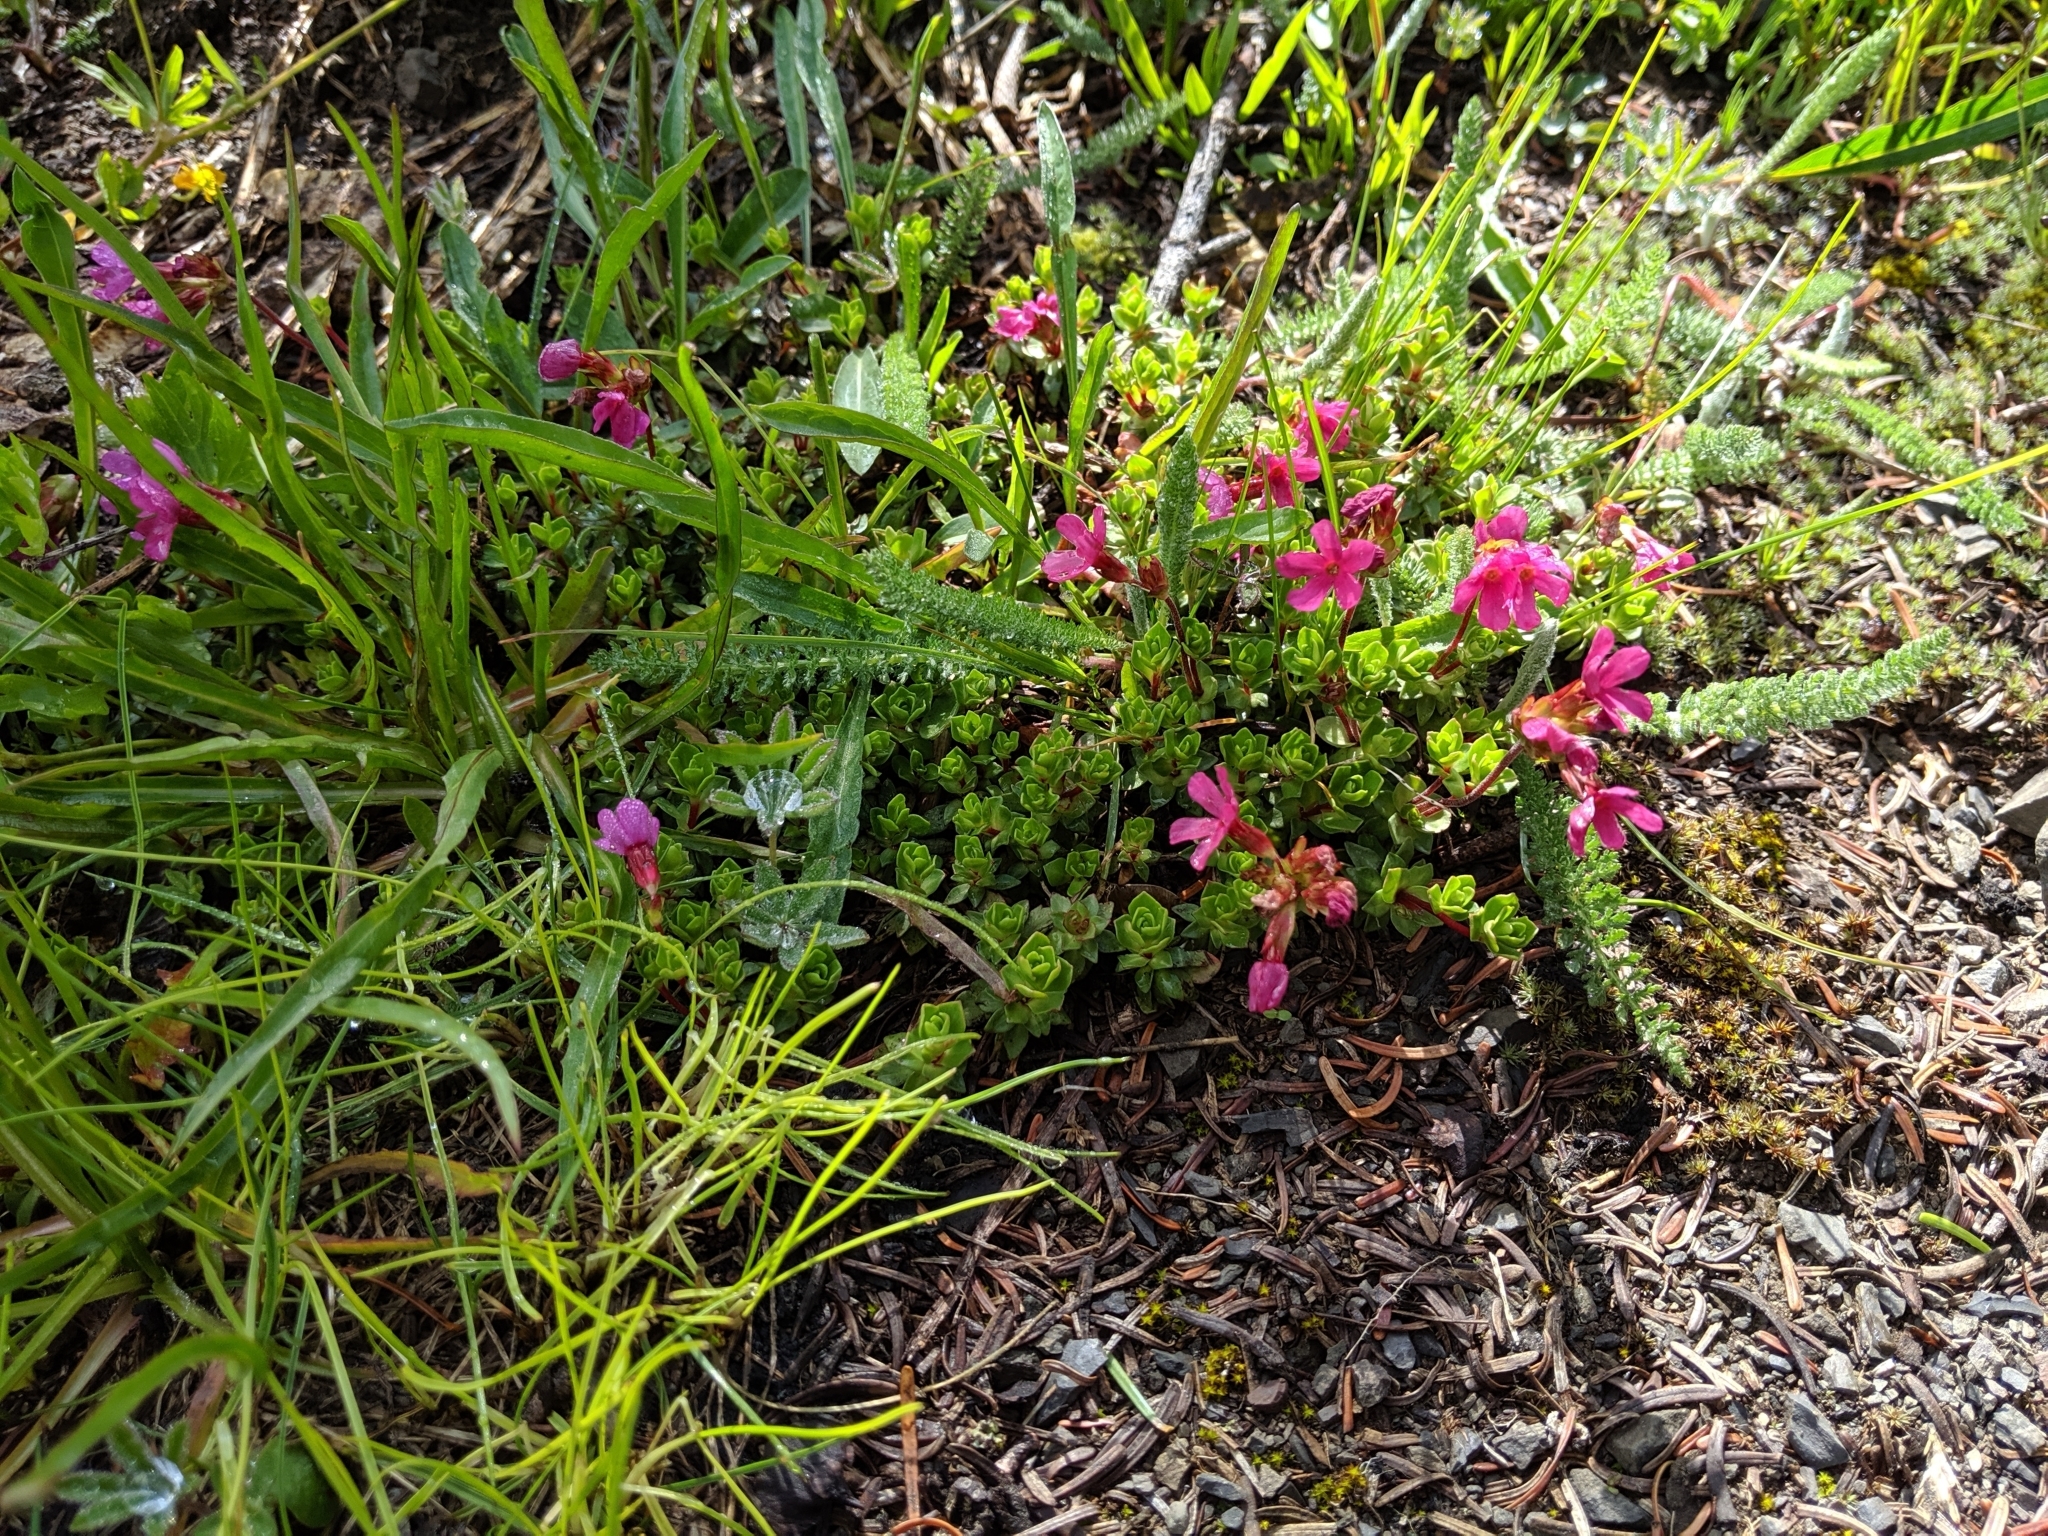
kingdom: Plantae
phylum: Tracheophyta
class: Magnoliopsida
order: Ericales
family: Primulaceae
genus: Androsace
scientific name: Androsace laevigata
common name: Cliff dwarf-primrose
